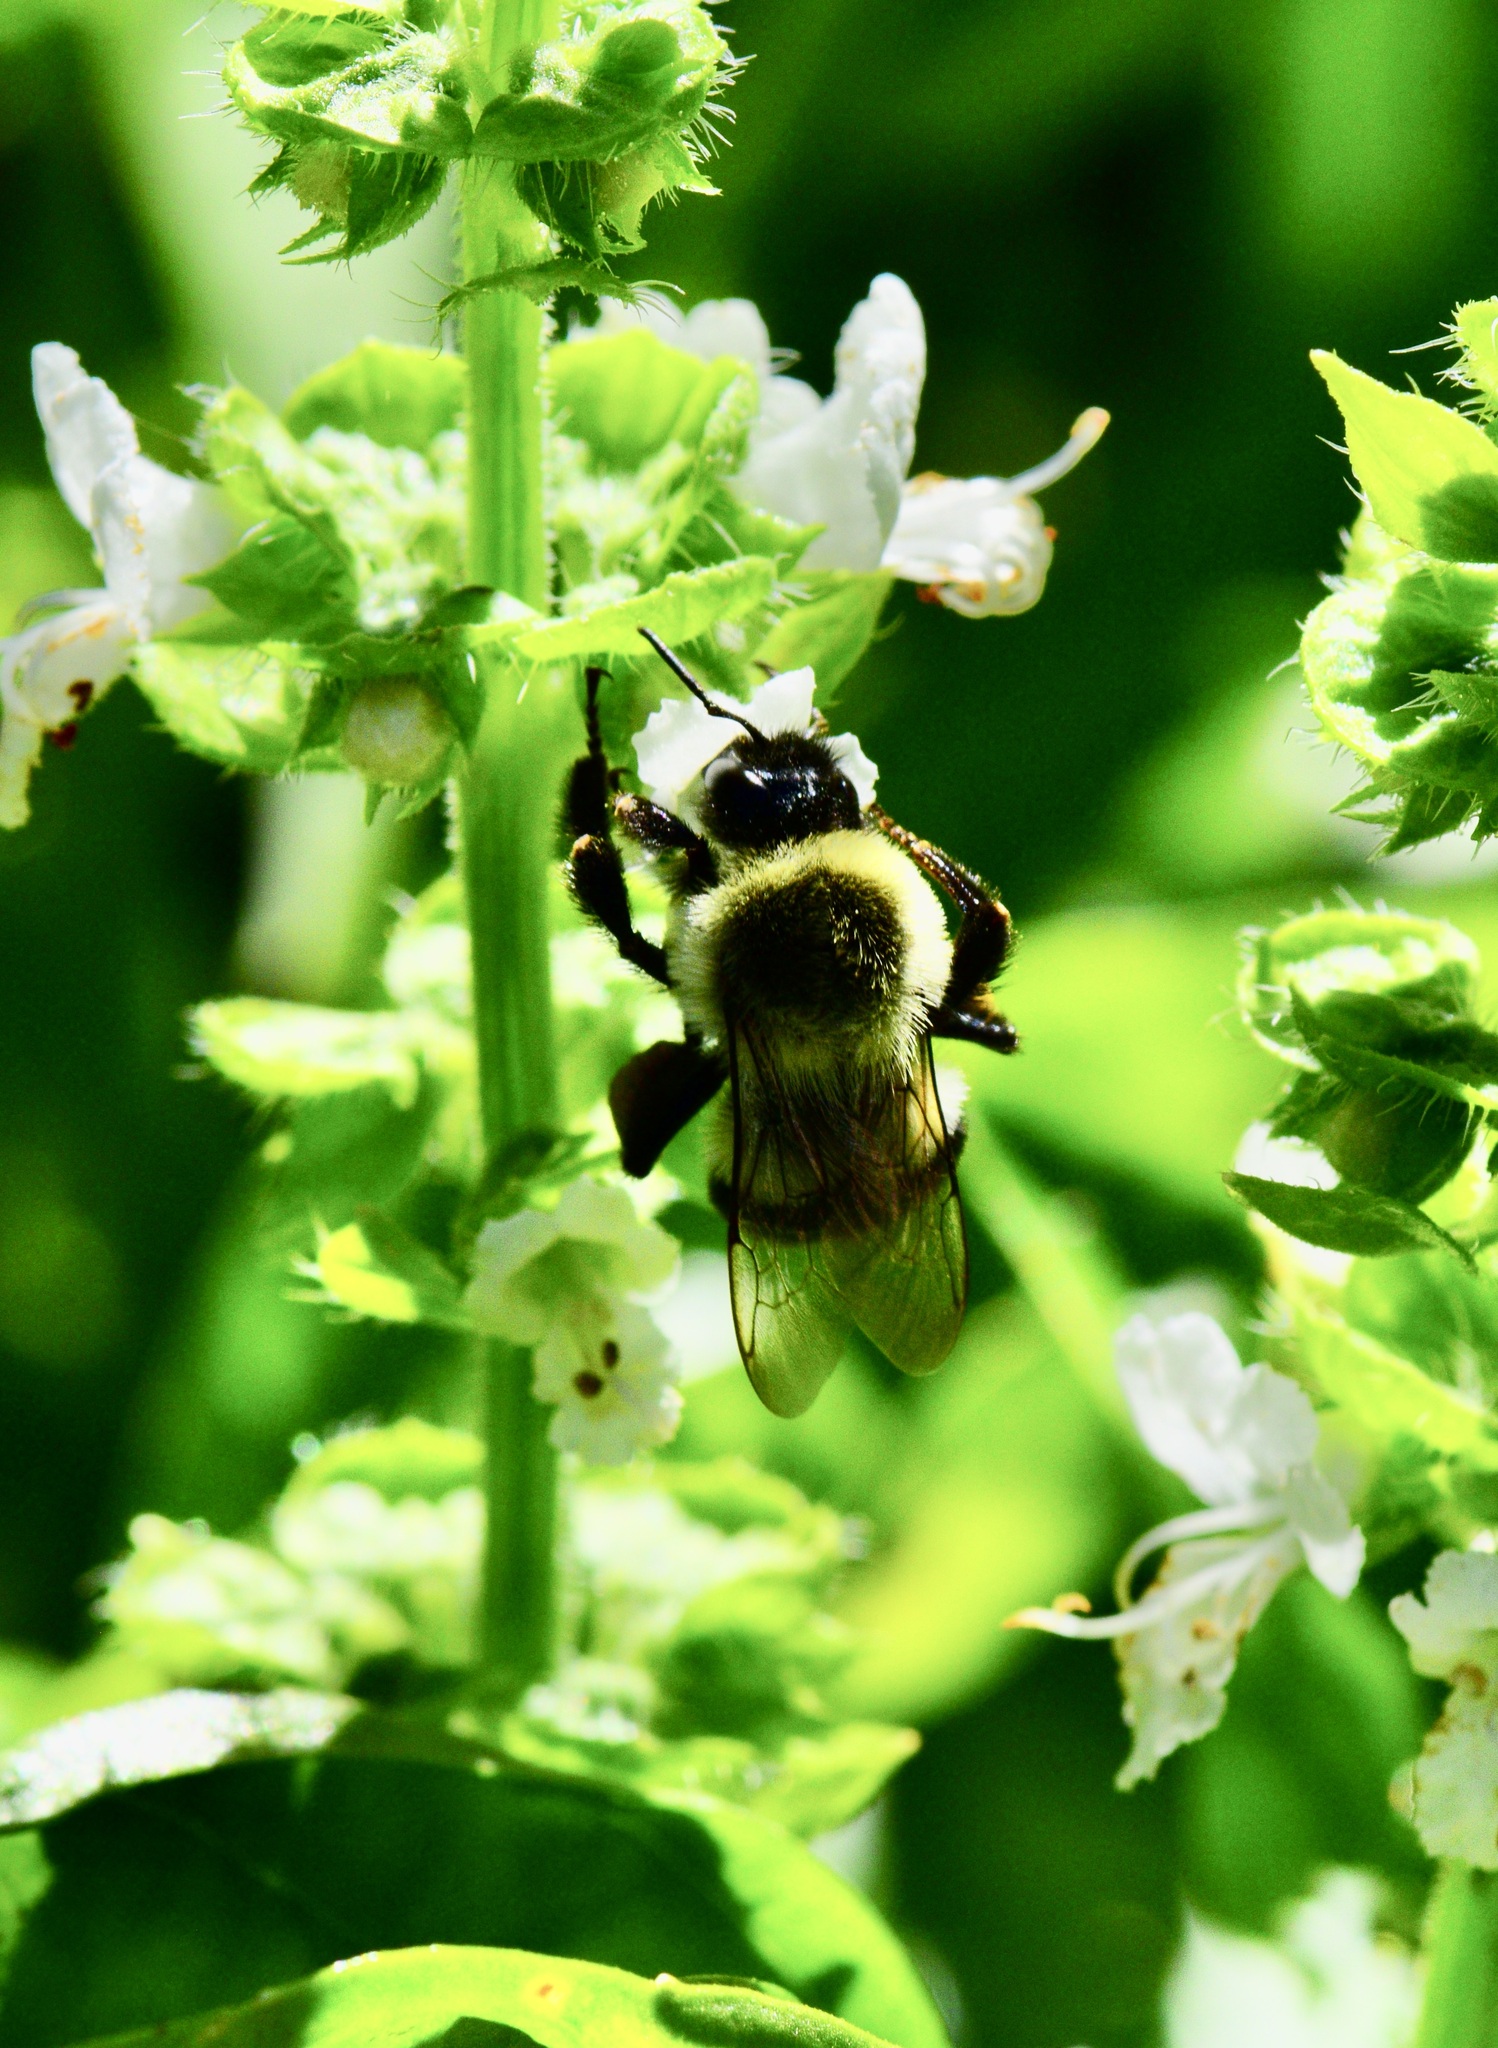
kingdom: Animalia
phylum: Arthropoda
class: Insecta
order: Hymenoptera
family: Apidae
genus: Bombus
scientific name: Bombus impatiens
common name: Common eastern bumble bee
